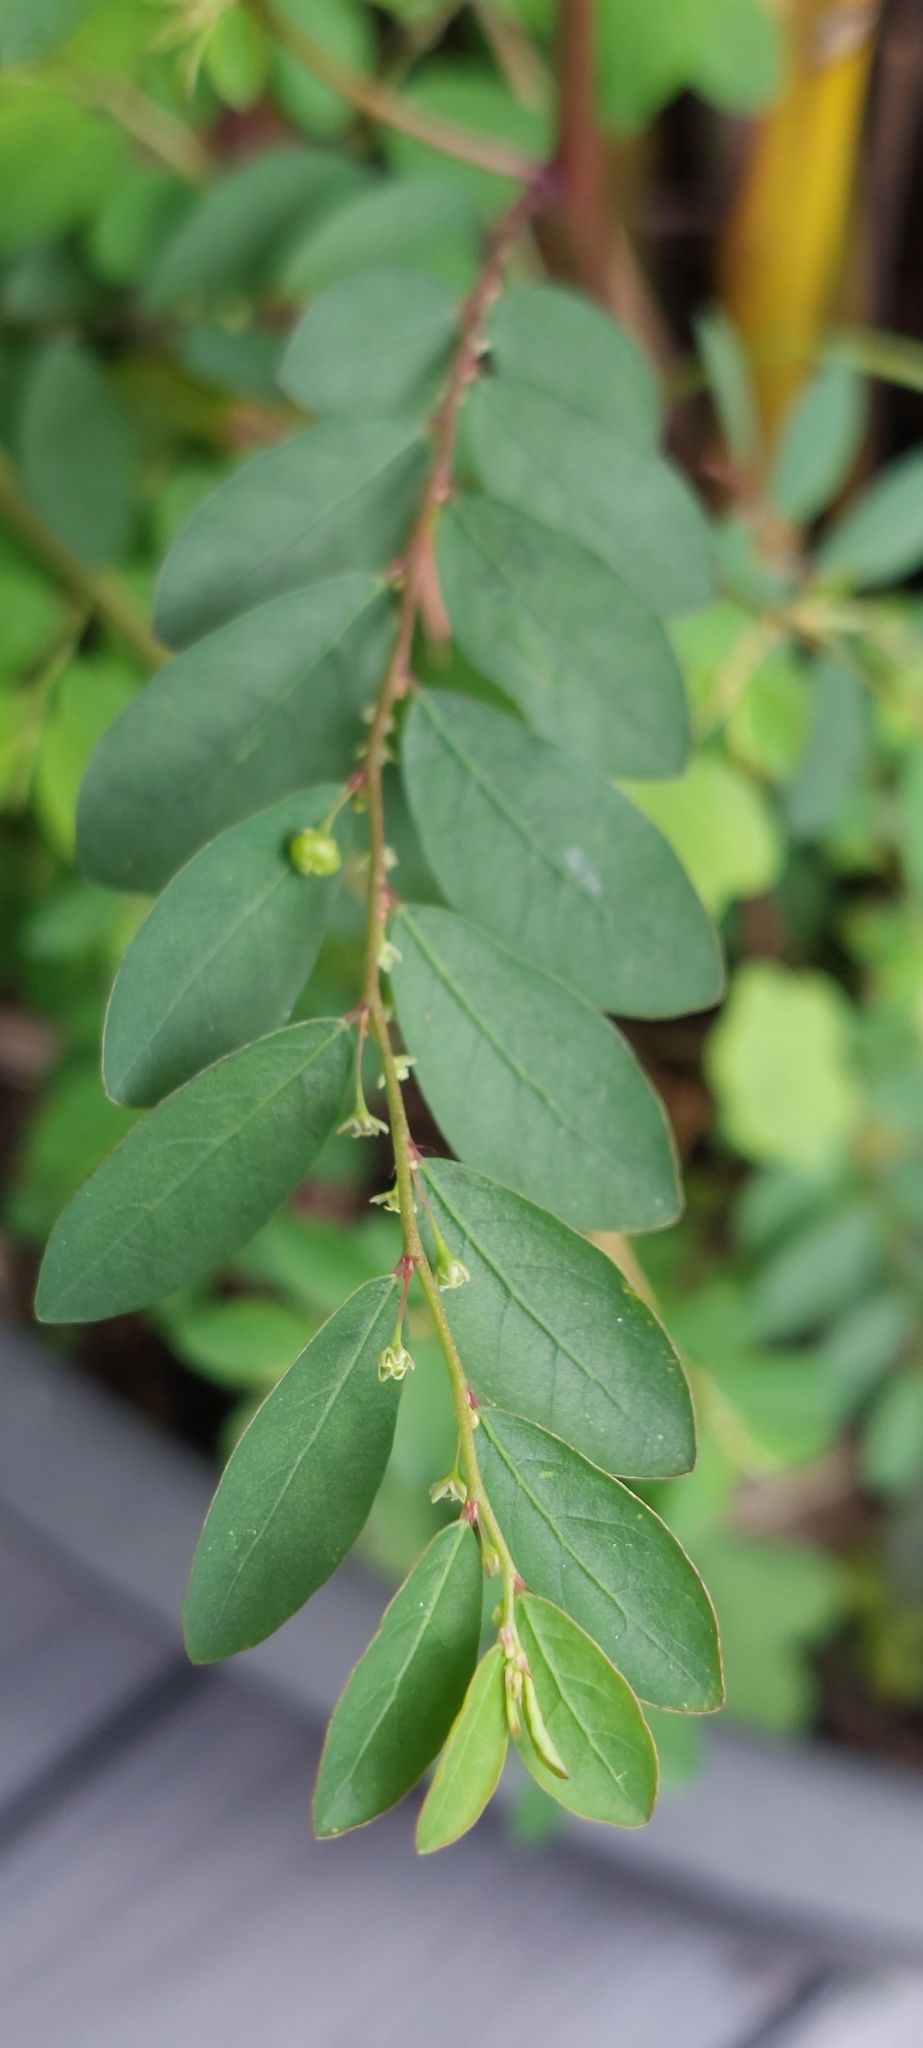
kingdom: Plantae
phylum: Tracheophyta
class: Magnoliopsida
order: Malpighiales
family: Phyllanthaceae
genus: Phyllanthus
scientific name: Phyllanthus tenellus
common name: Mascarene island leaf-flower
